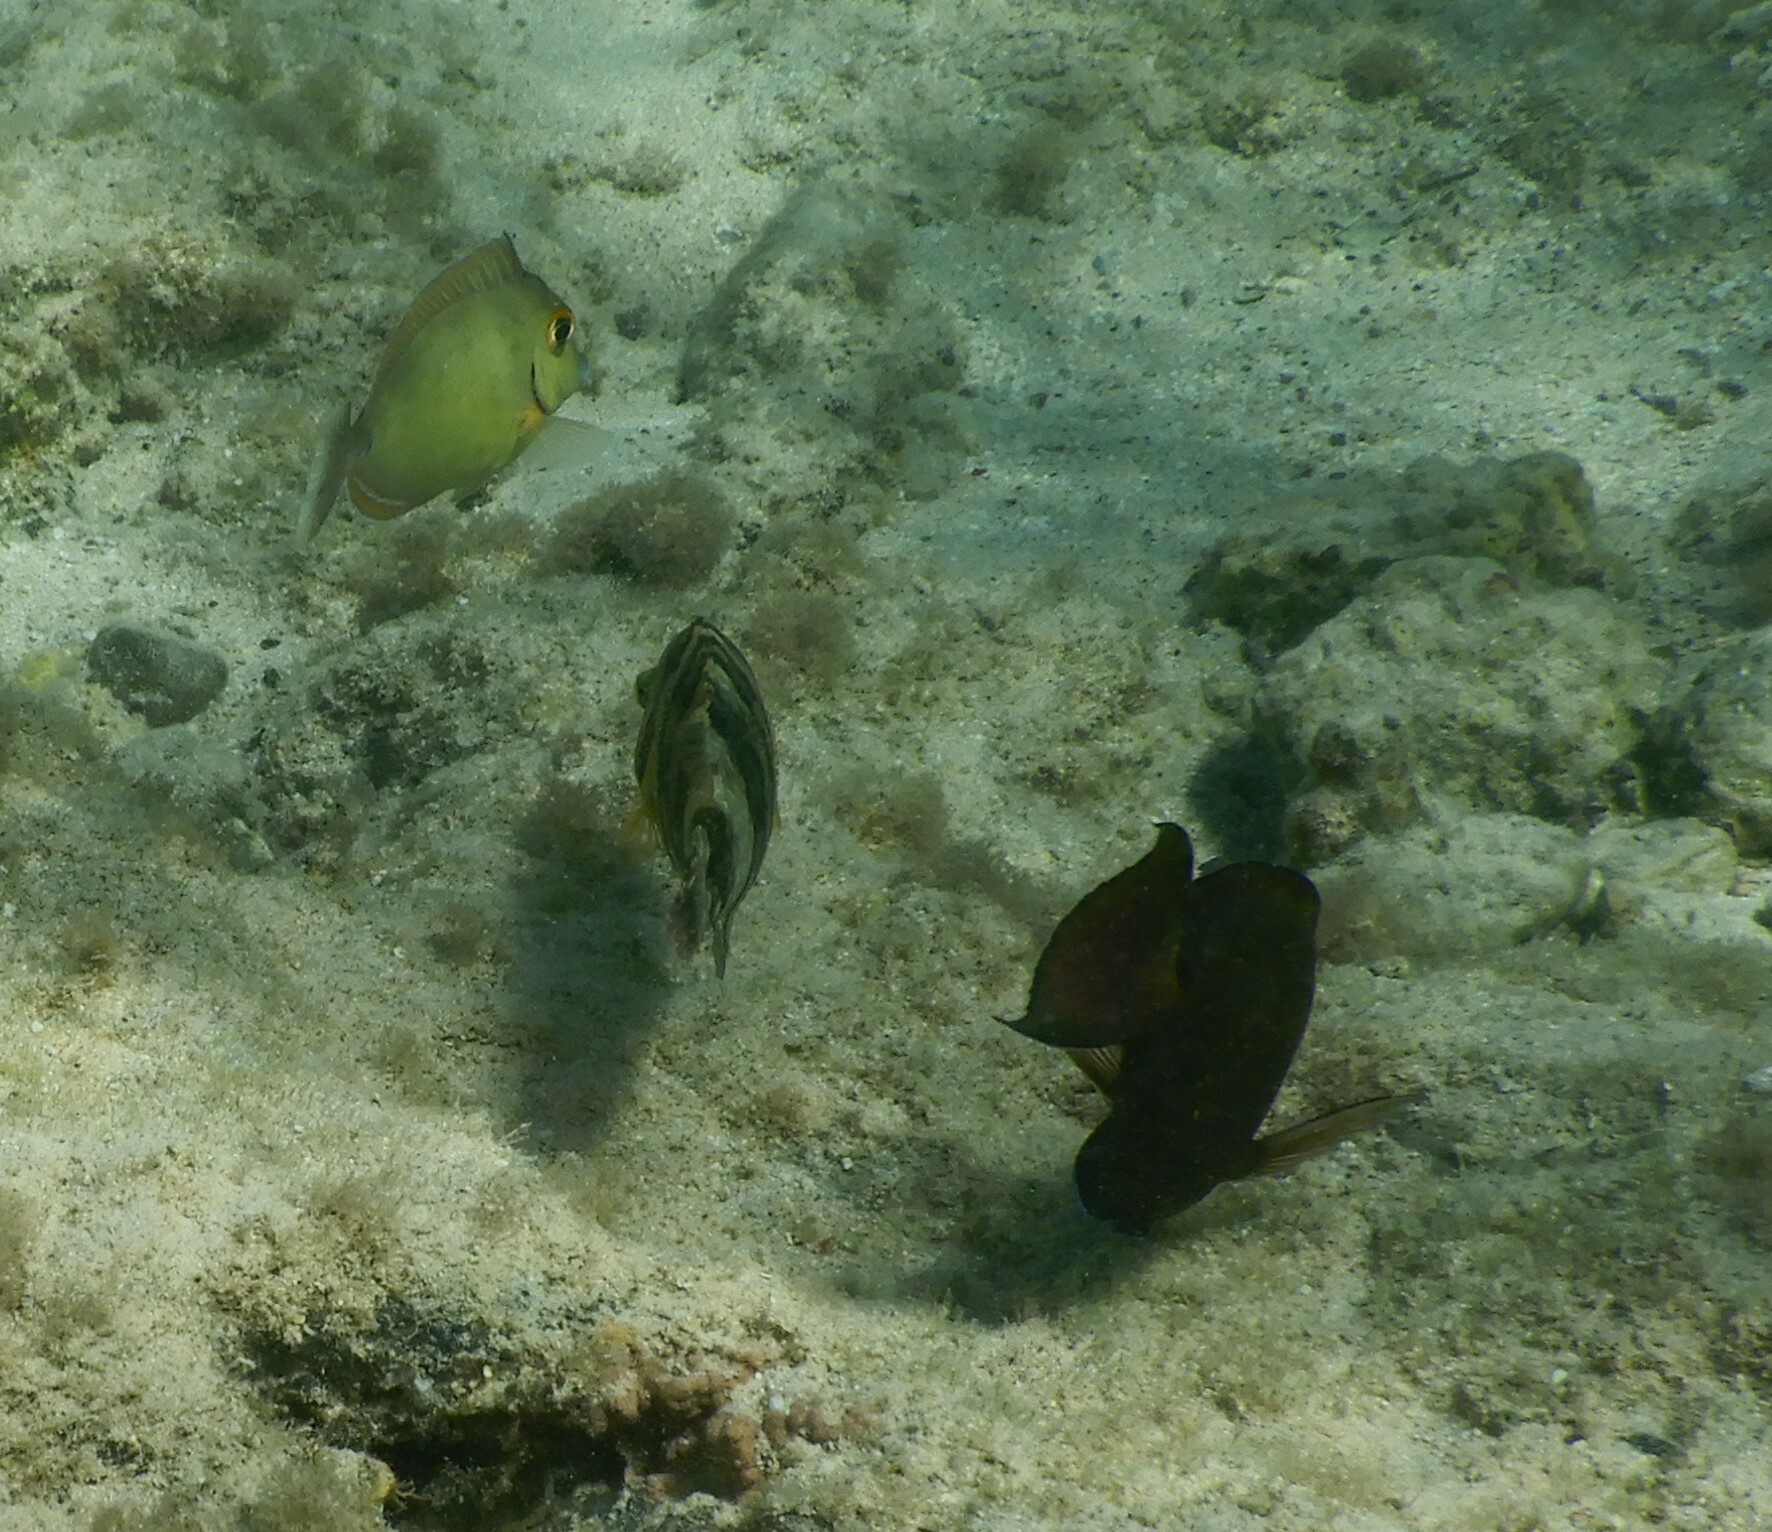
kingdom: Animalia
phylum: Chordata
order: Perciformes
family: Labridae
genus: Cheilinus
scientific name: Cheilinus lunulatus
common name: Broomtail wrasse
